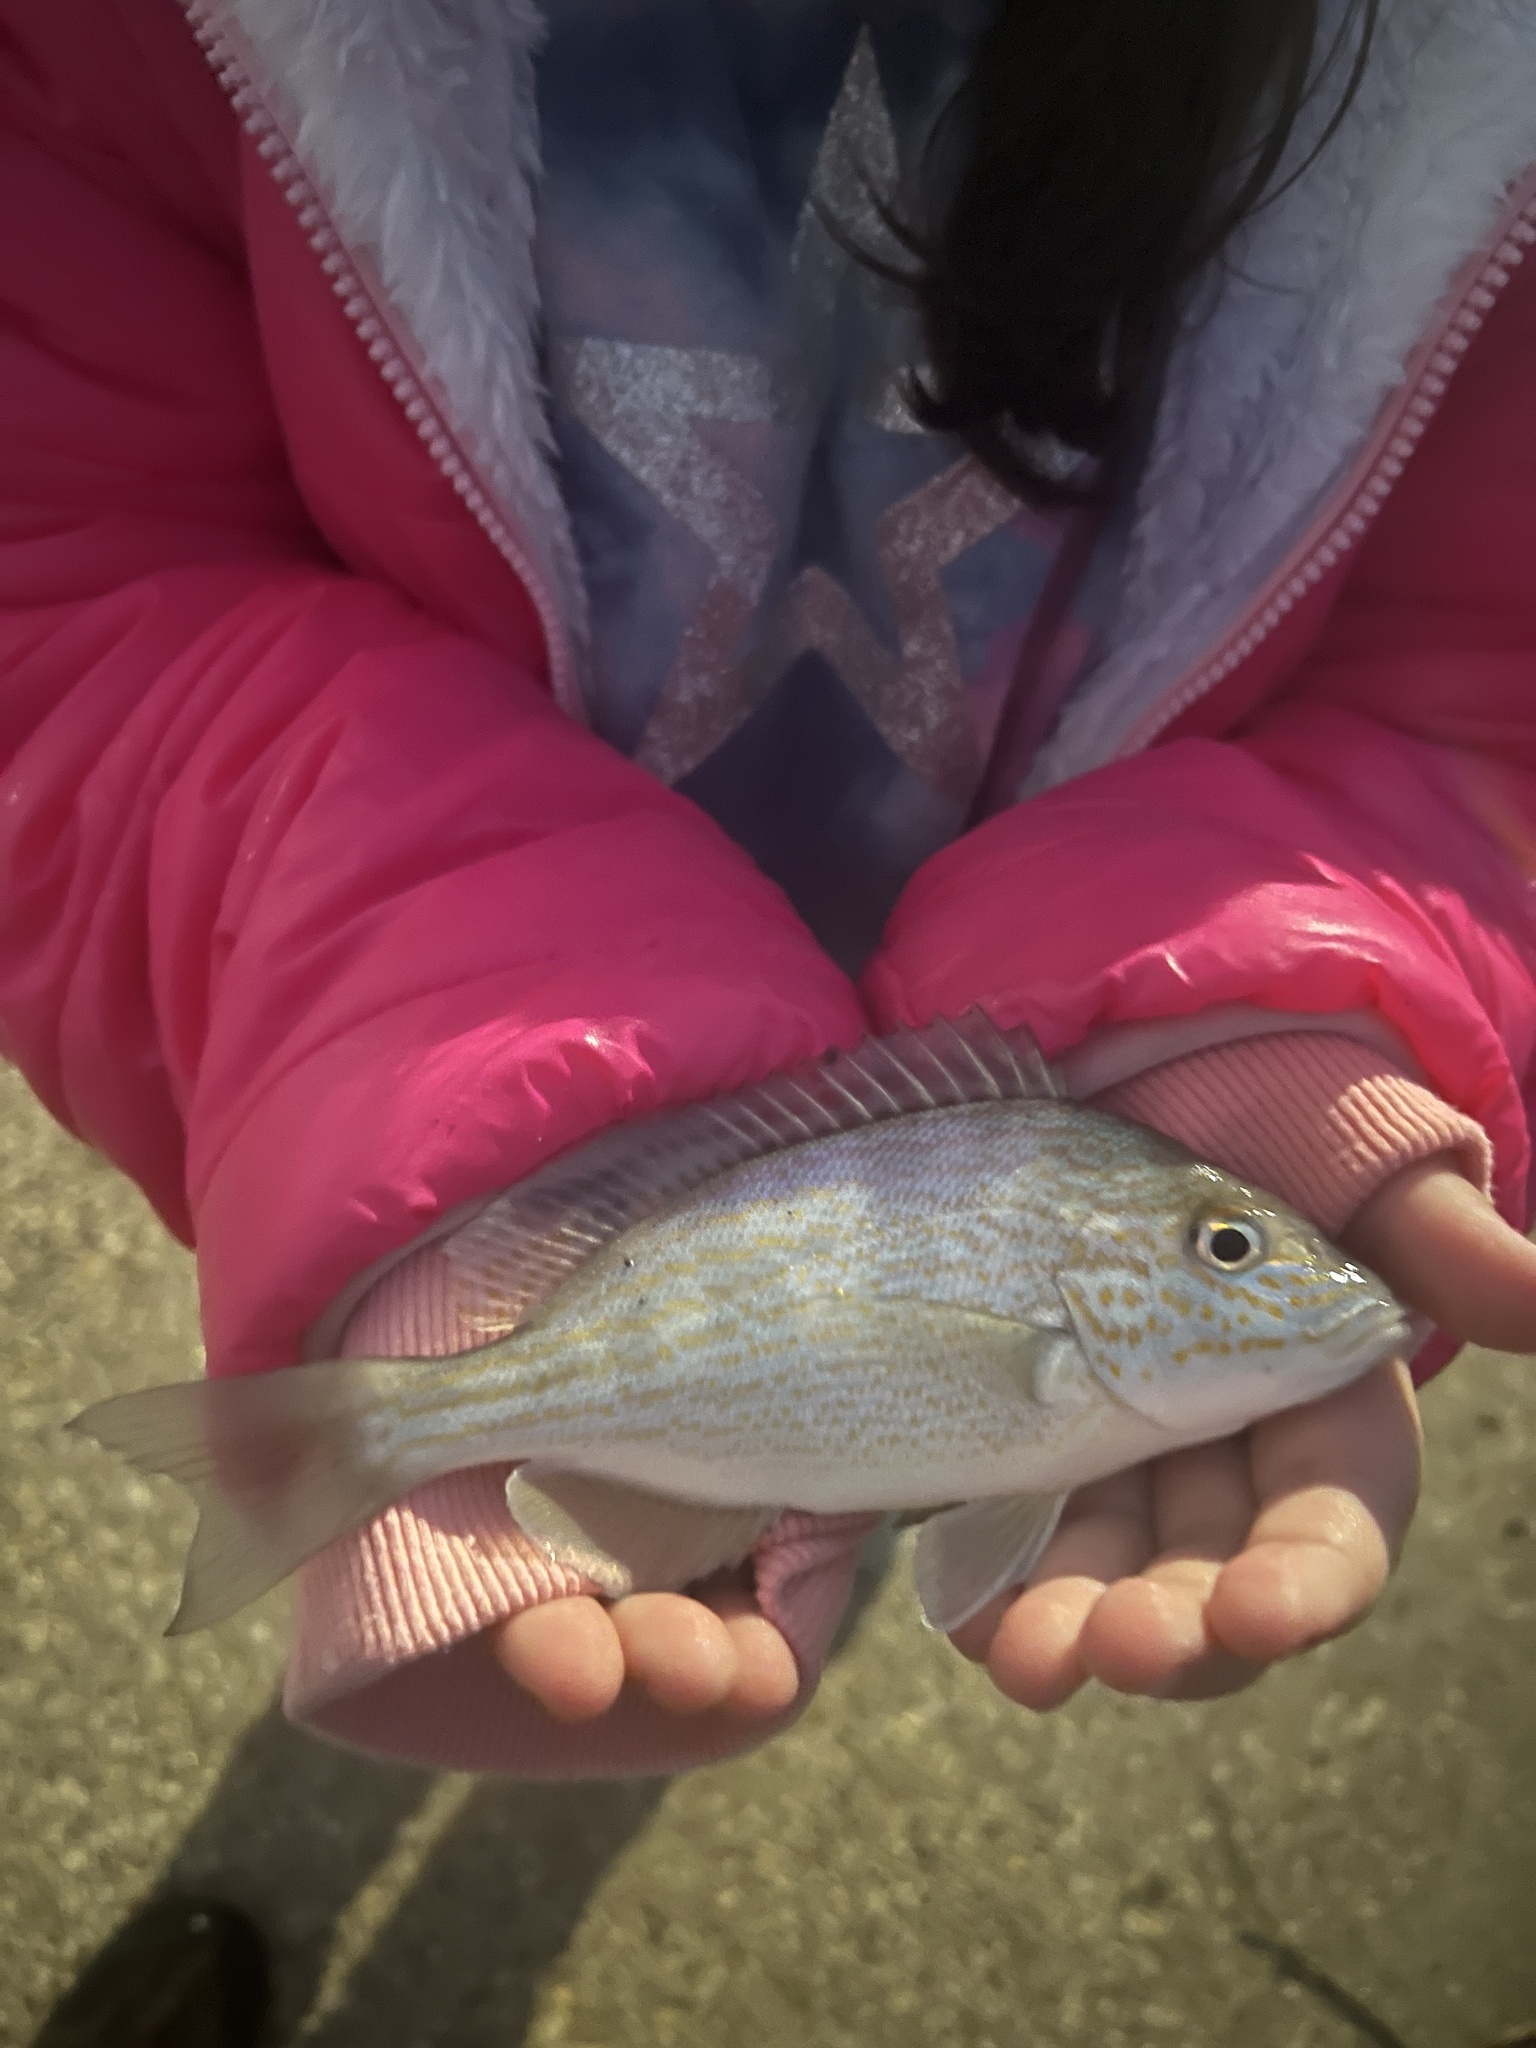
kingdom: Animalia
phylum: Chordata
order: Perciformes
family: Haemulidae
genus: Orthopristis
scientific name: Orthopristis chrysoptera
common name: Pigfish
